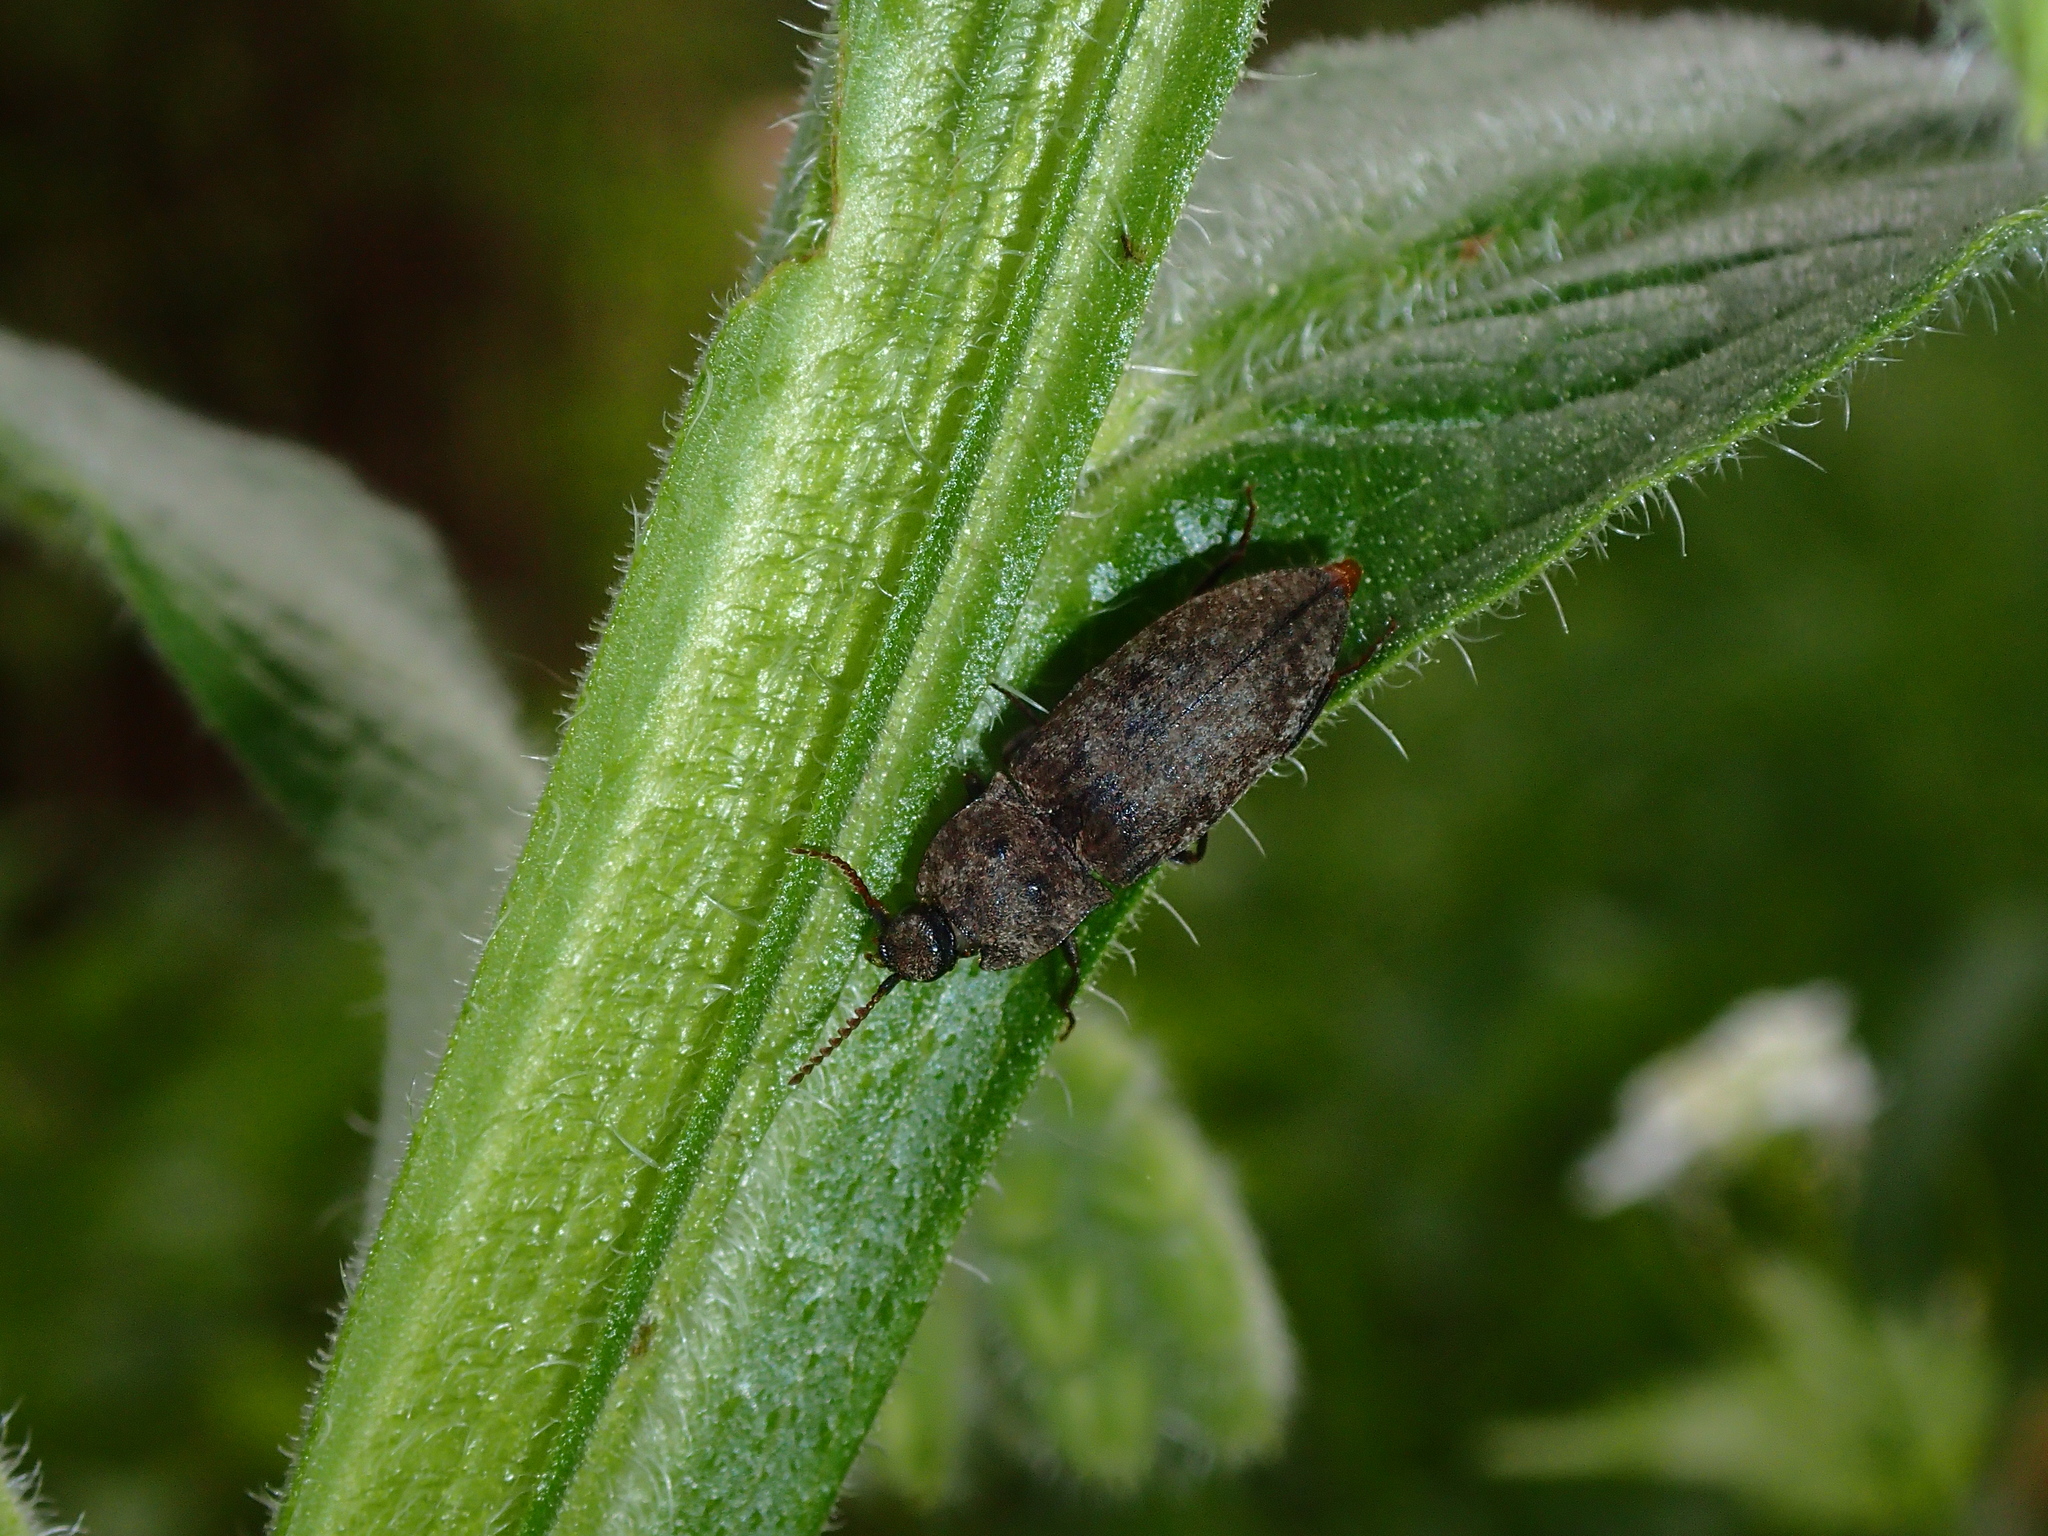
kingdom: Animalia
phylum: Arthropoda
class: Insecta
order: Coleoptera
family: Elateridae
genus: Agrypnus
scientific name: Agrypnus murinus
